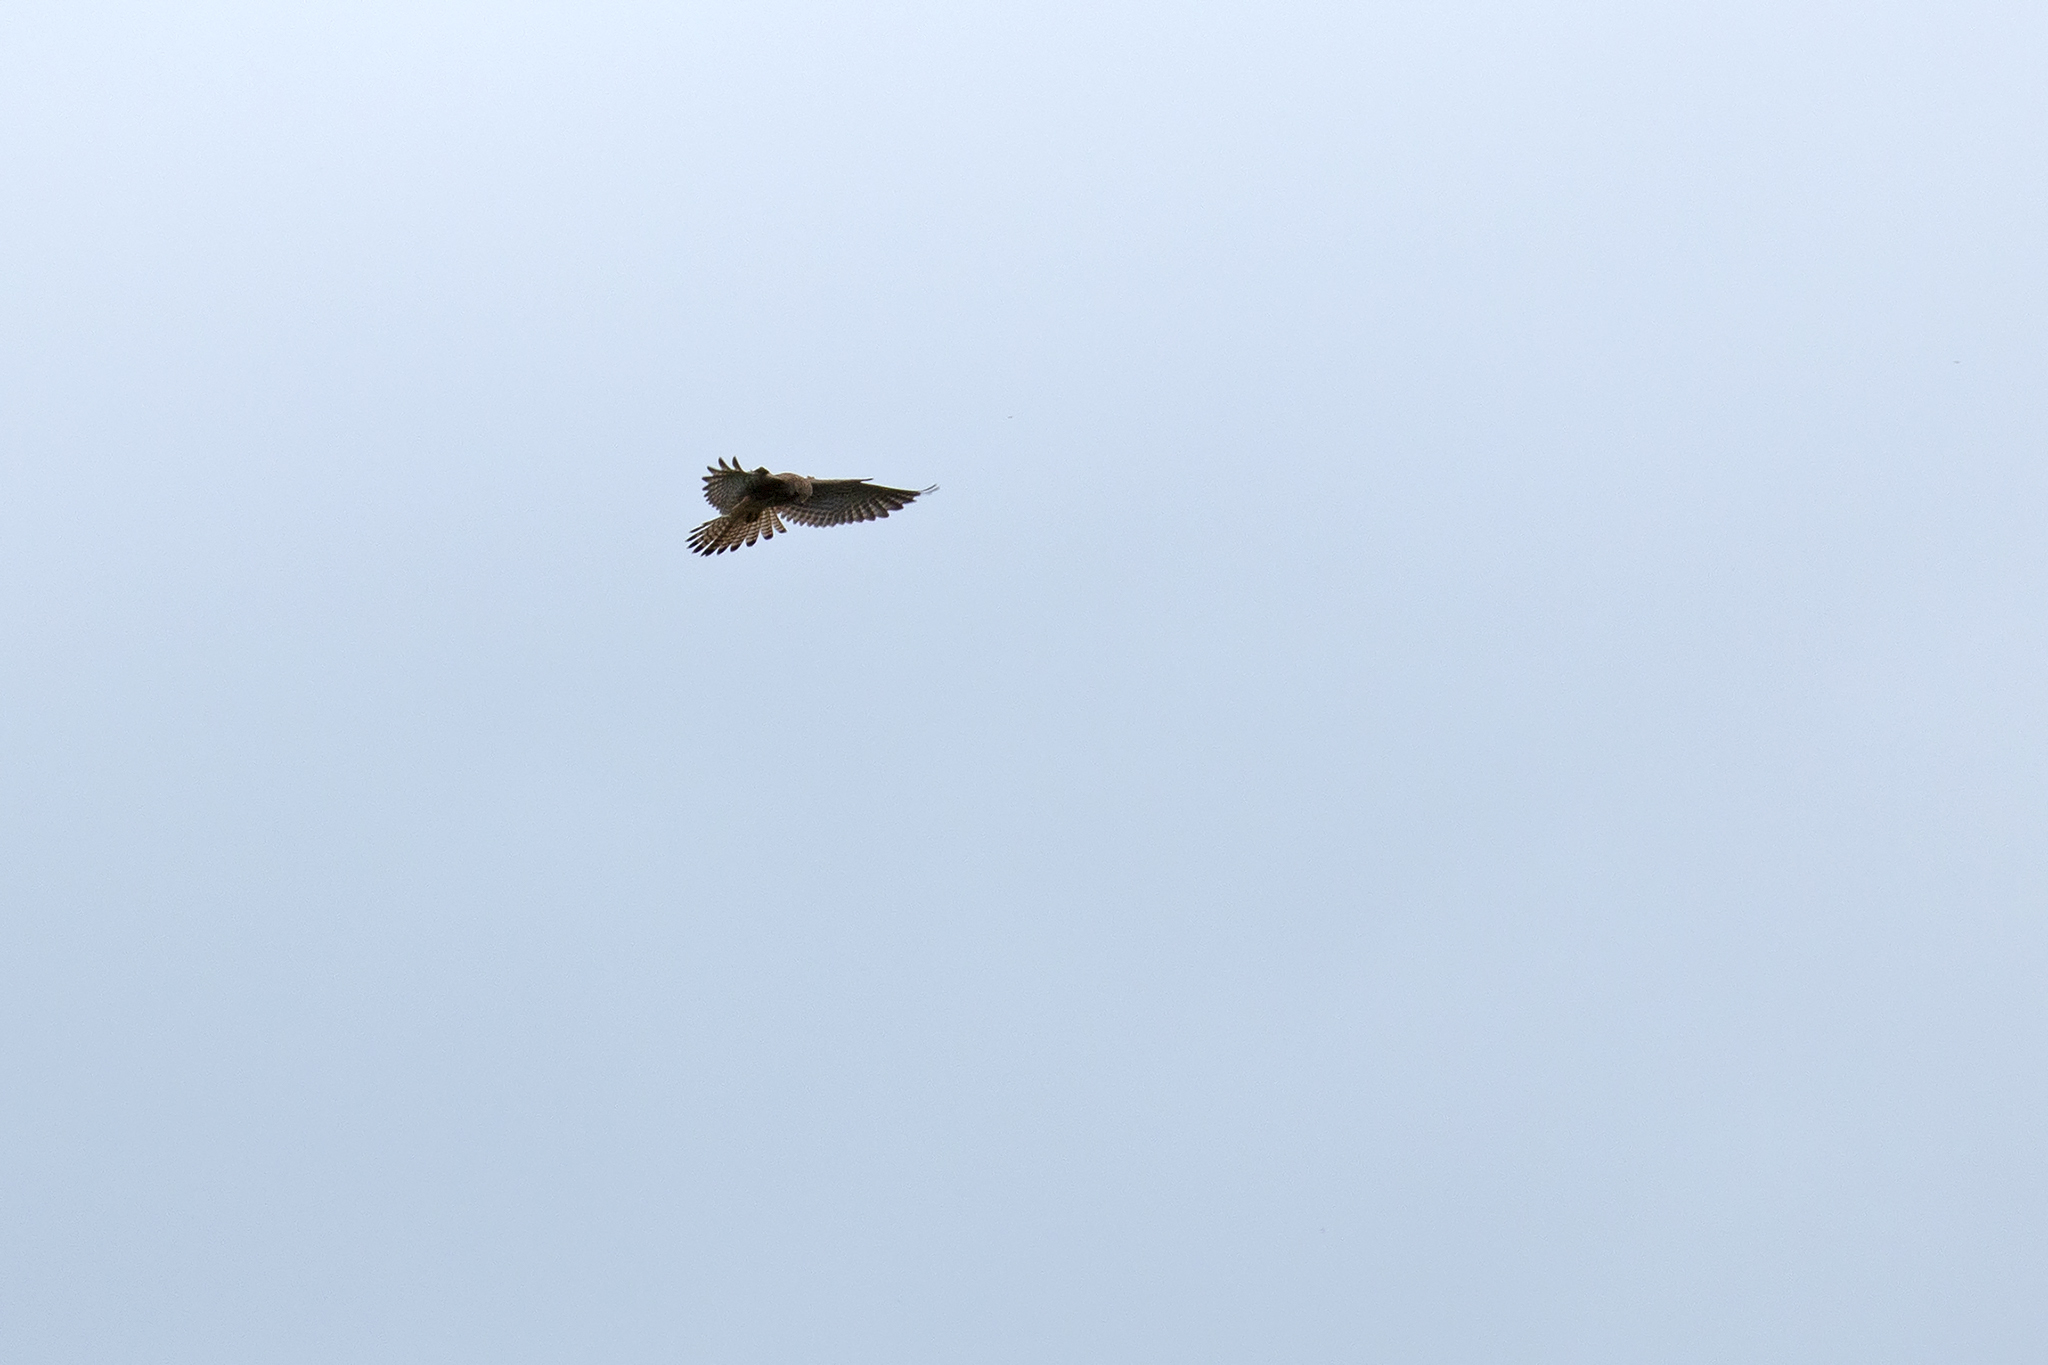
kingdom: Animalia
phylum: Chordata
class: Aves
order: Falconiformes
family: Falconidae
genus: Falco
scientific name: Falco tinnunculus
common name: Common kestrel
